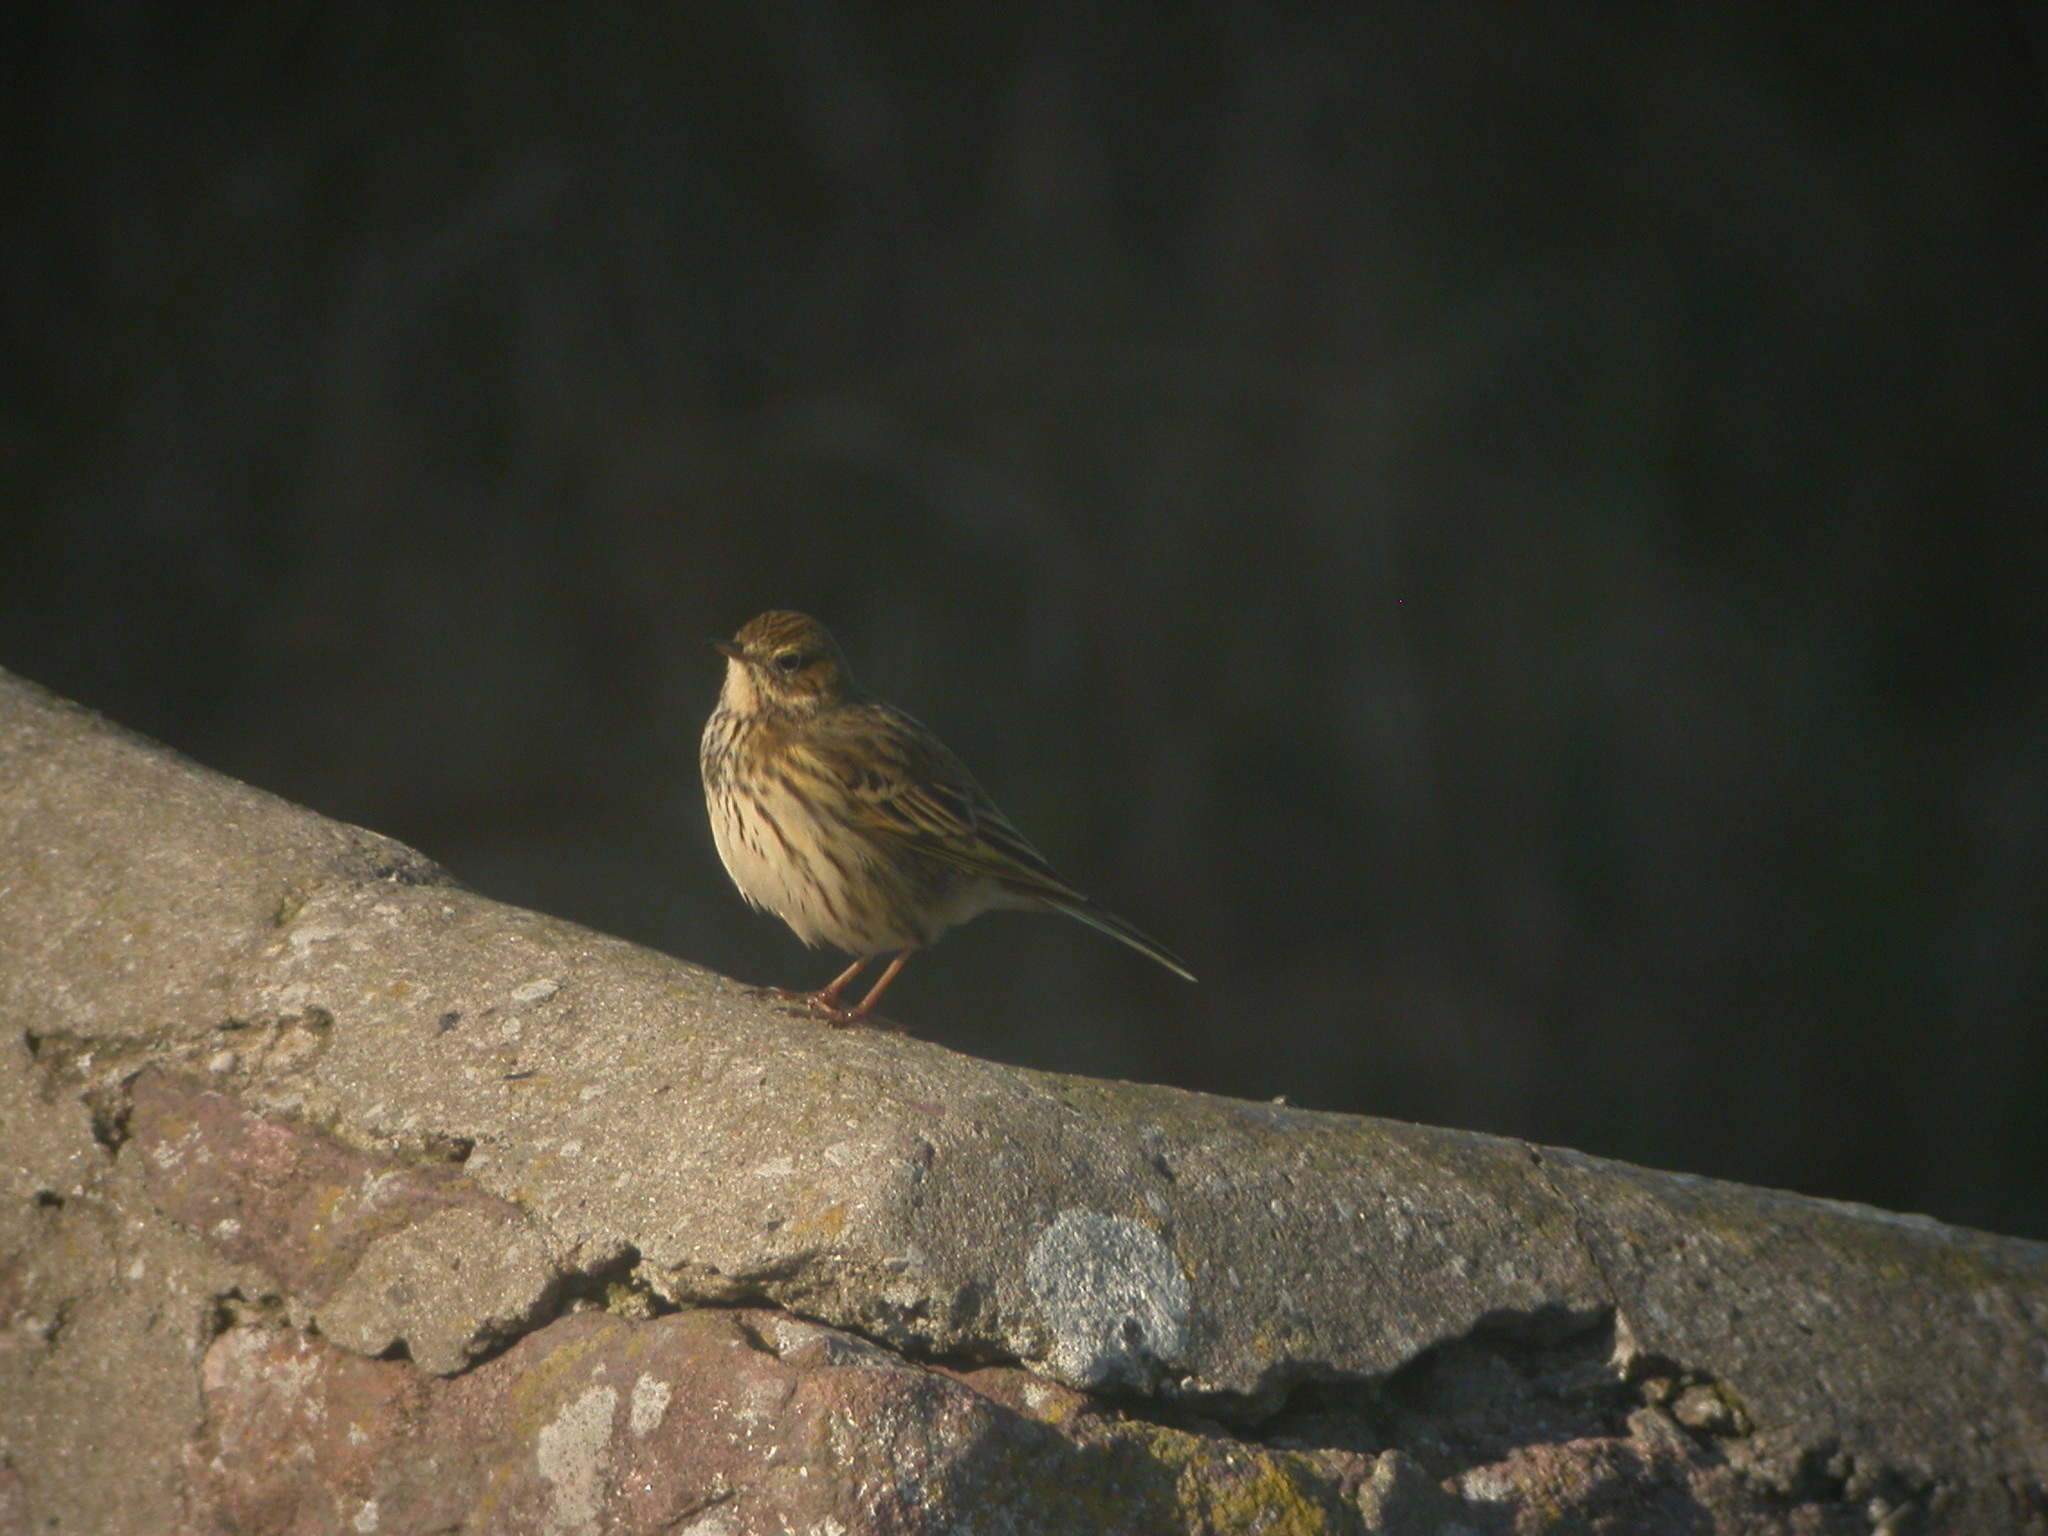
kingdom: Animalia
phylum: Chordata
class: Aves
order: Passeriformes
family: Motacillidae
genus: Anthus
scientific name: Anthus pratensis
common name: Meadow pipit
